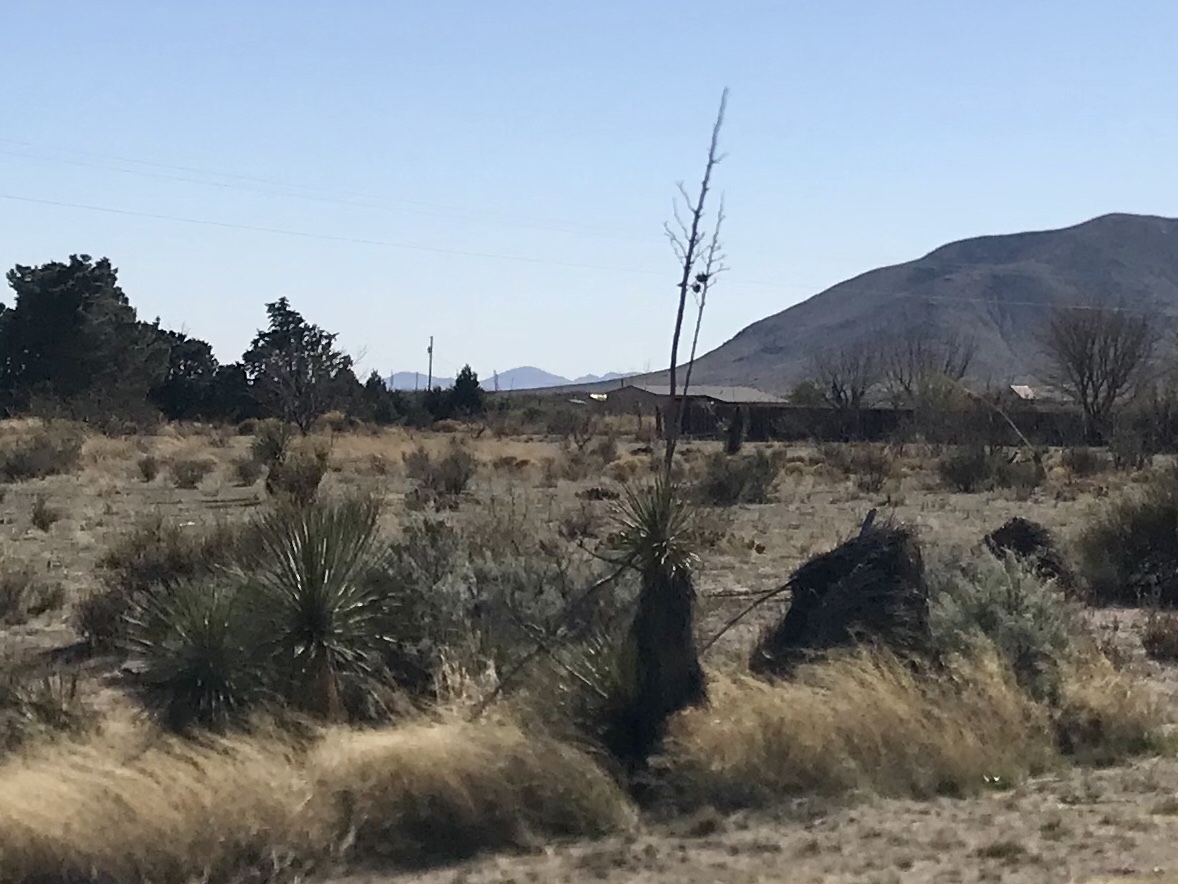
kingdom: Plantae
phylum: Tracheophyta
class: Liliopsida
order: Asparagales
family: Asparagaceae
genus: Yucca
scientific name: Yucca elata
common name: Palmella
